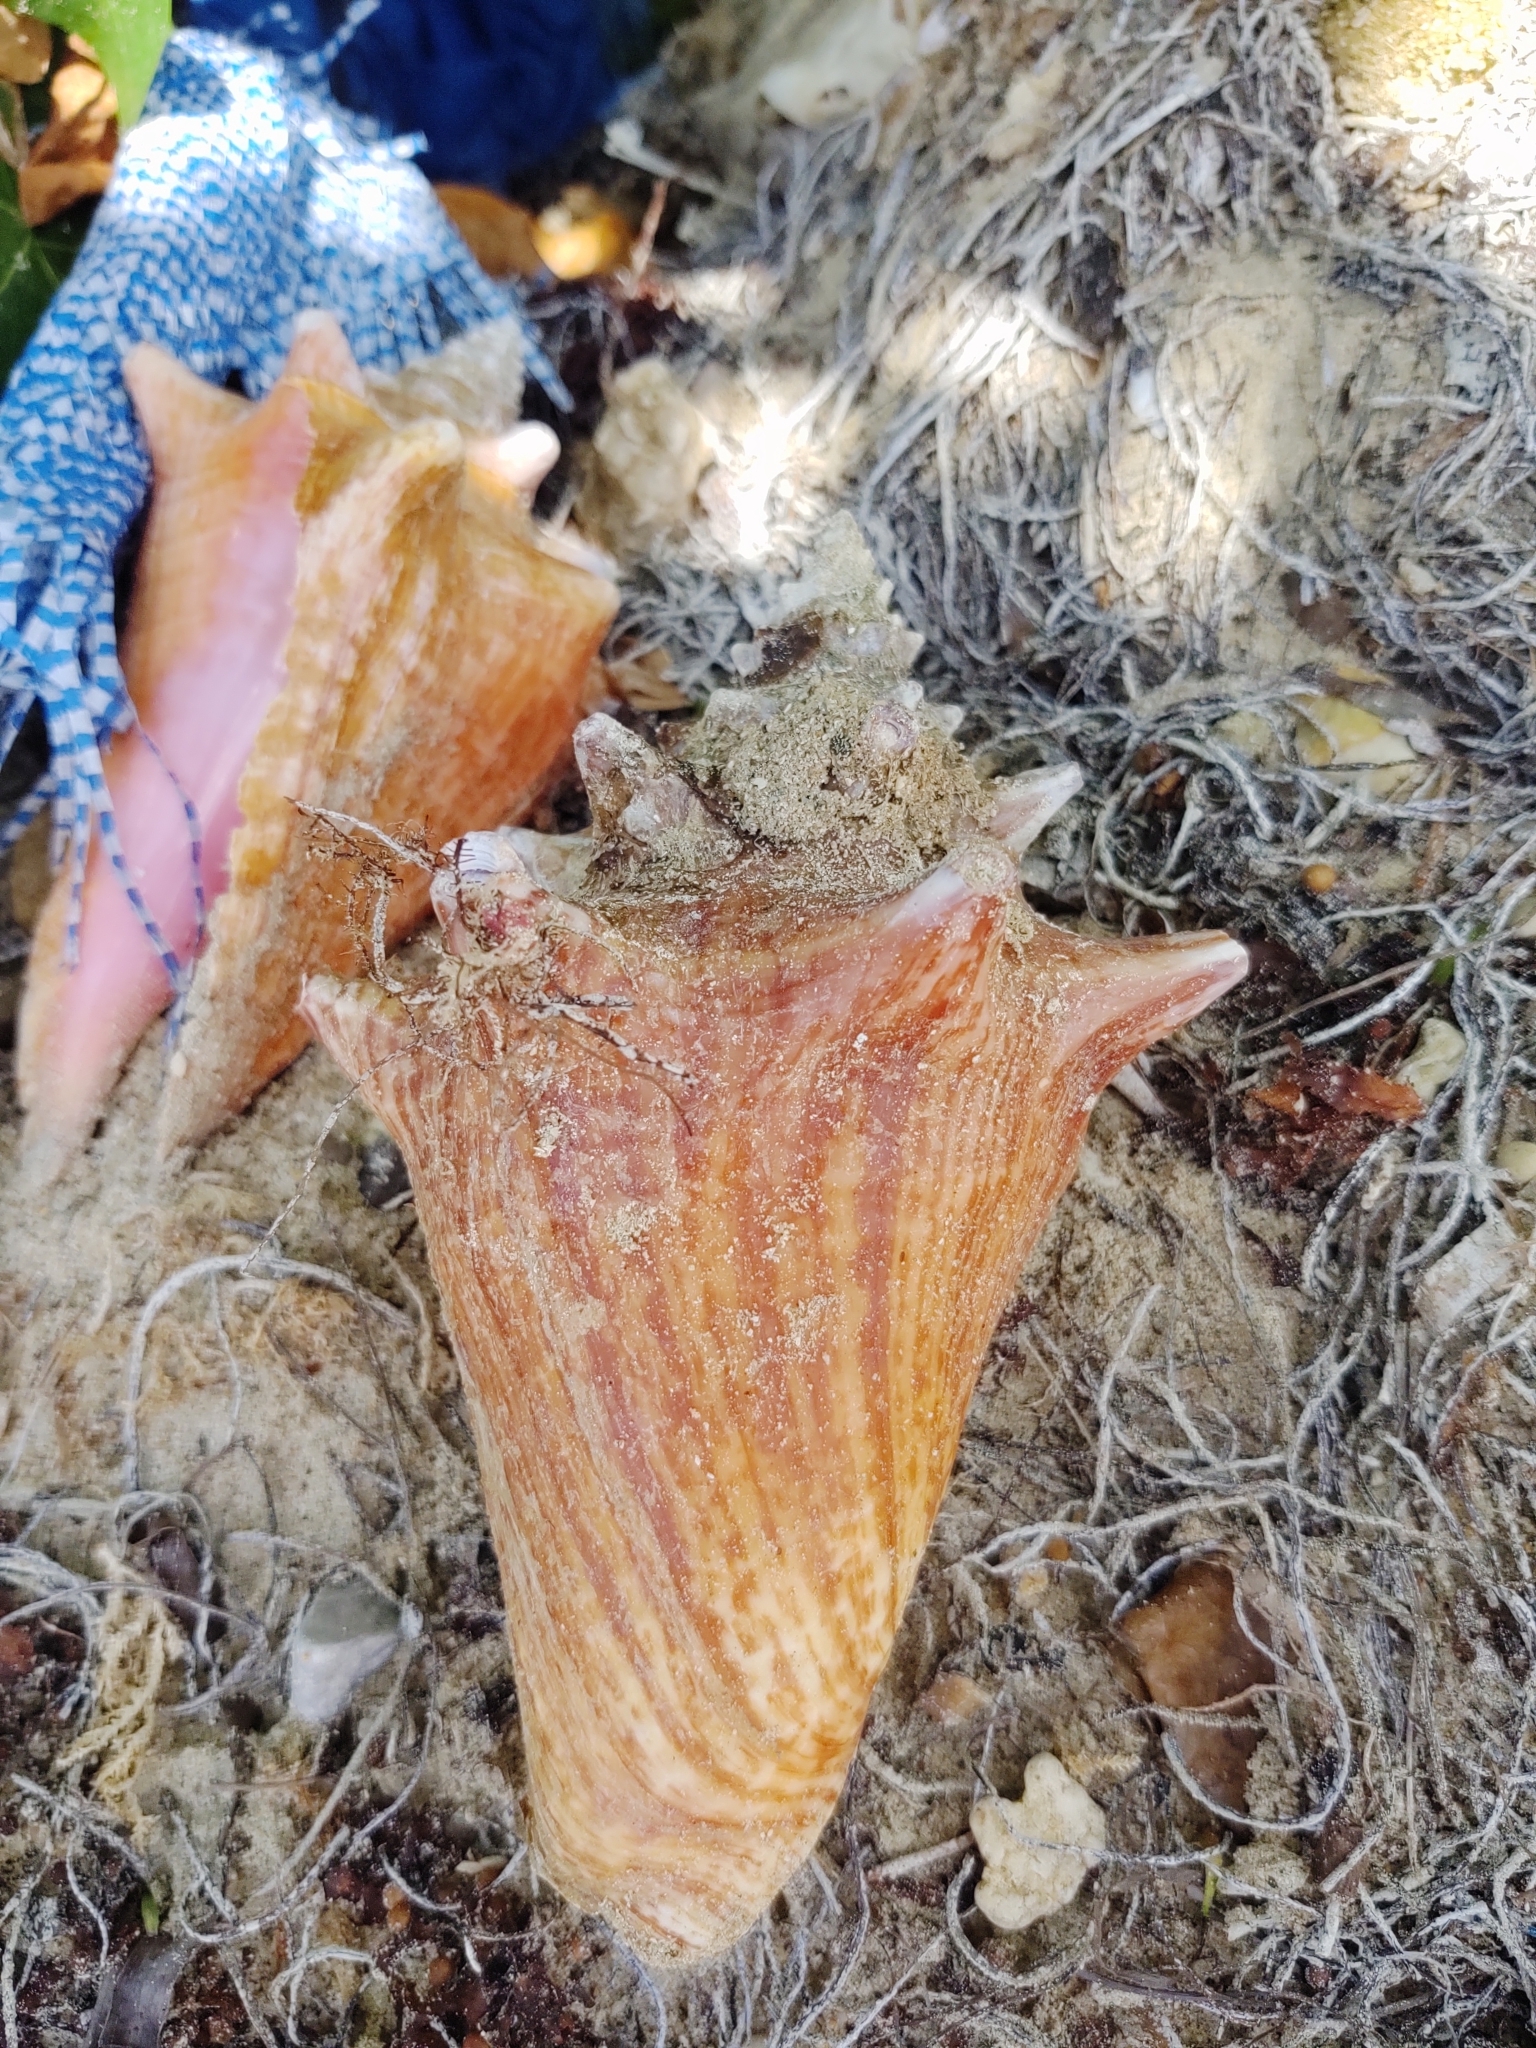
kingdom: Animalia
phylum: Mollusca
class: Gastropoda
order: Littorinimorpha
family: Strombidae
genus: Aliger
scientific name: Aliger gigas
